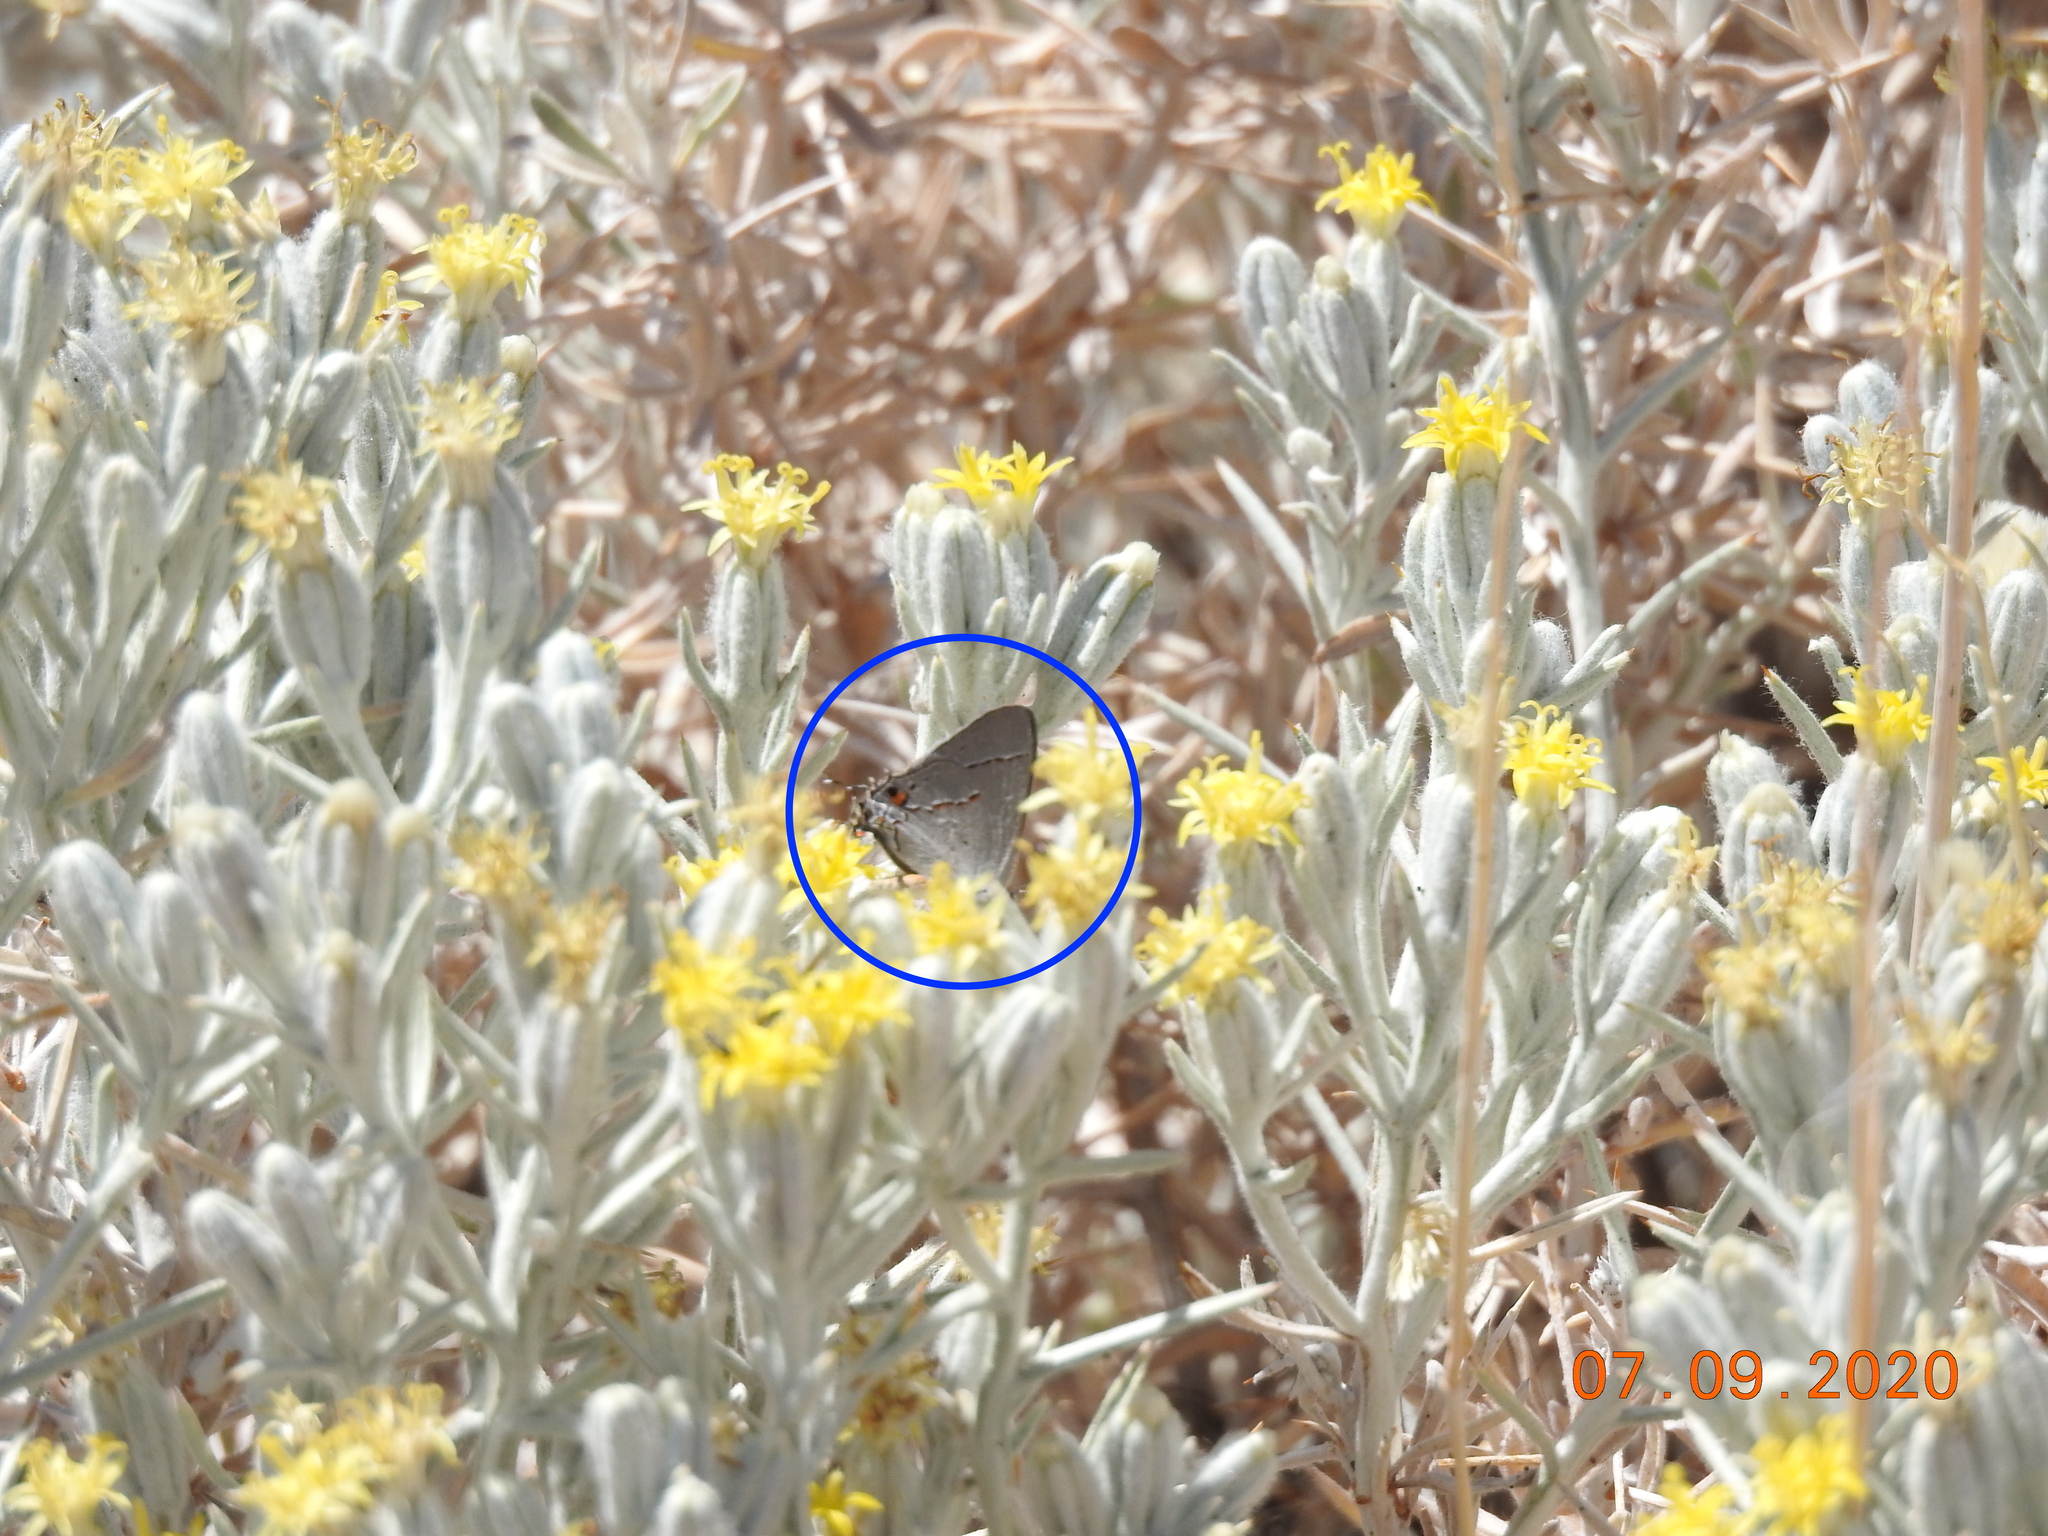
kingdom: Animalia
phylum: Arthropoda
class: Insecta
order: Lepidoptera
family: Lycaenidae
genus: Strymon
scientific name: Strymon melinus
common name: Gray hairstreak
